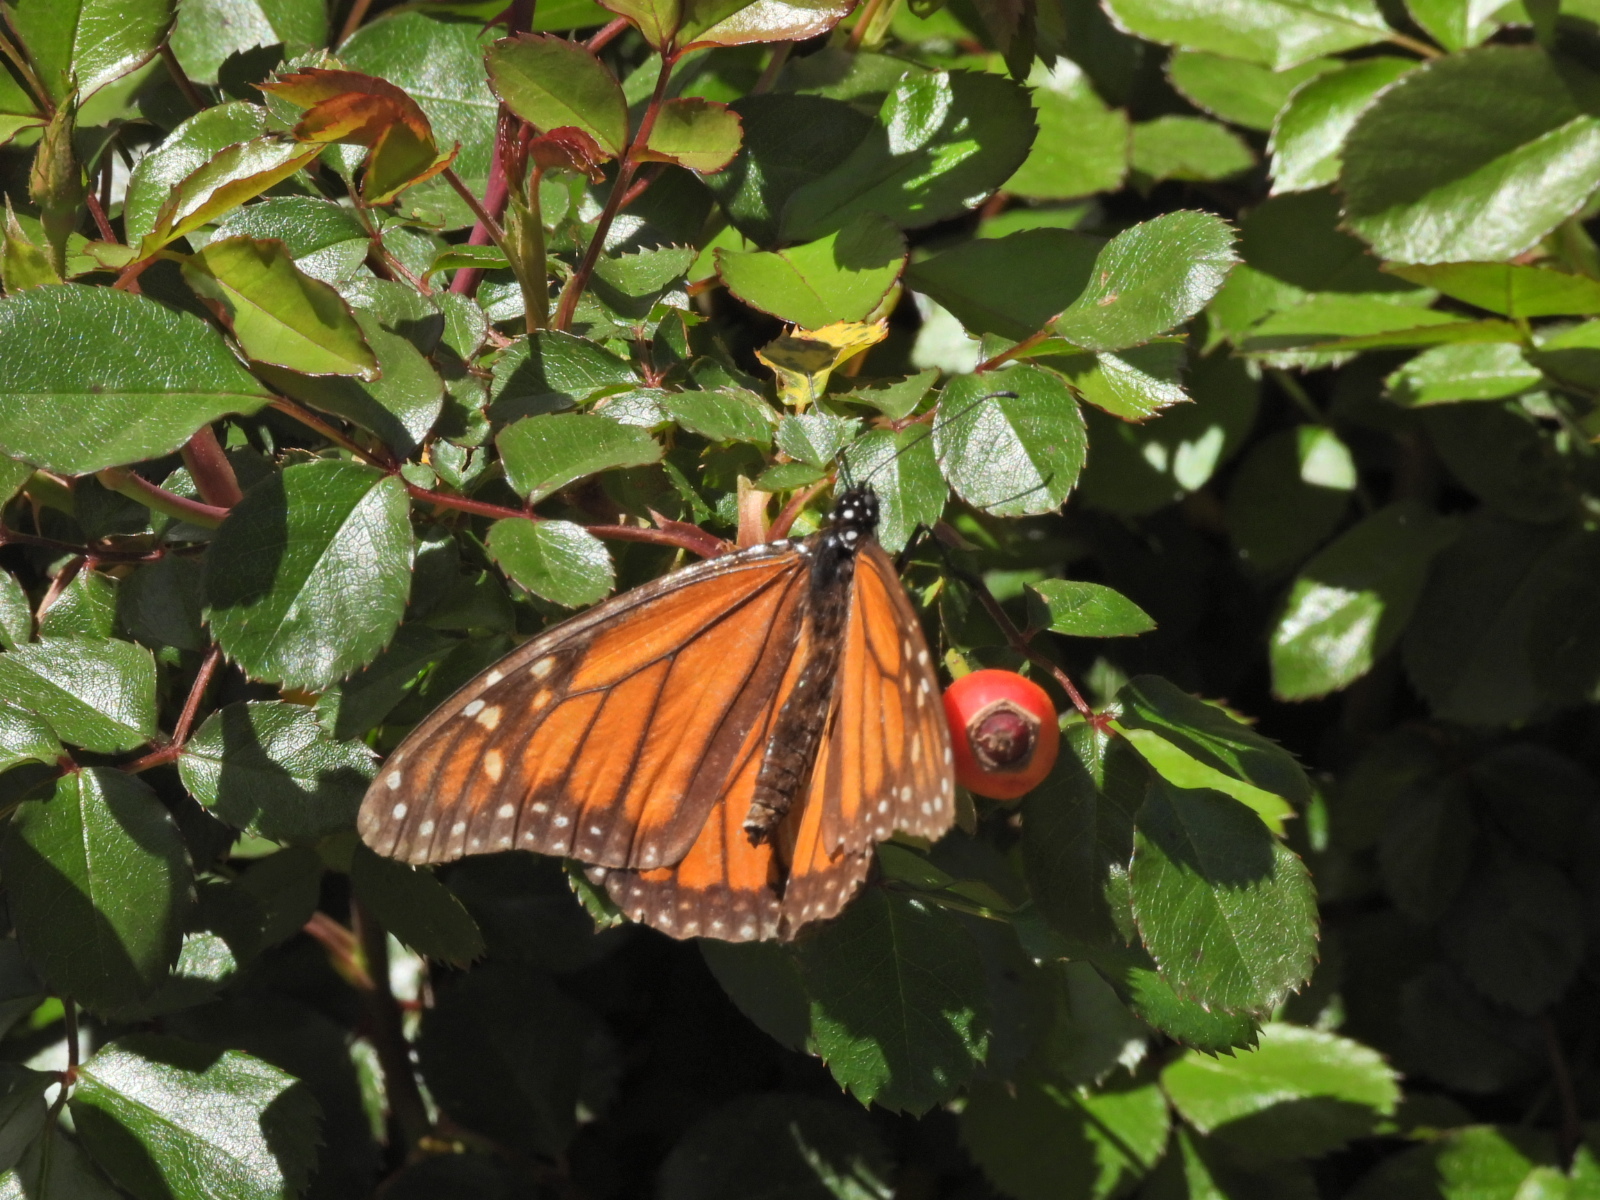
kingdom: Animalia
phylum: Arthropoda
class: Insecta
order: Lepidoptera
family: Nymphalidae
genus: Danaus
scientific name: Danaus plexippus
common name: Monarch
